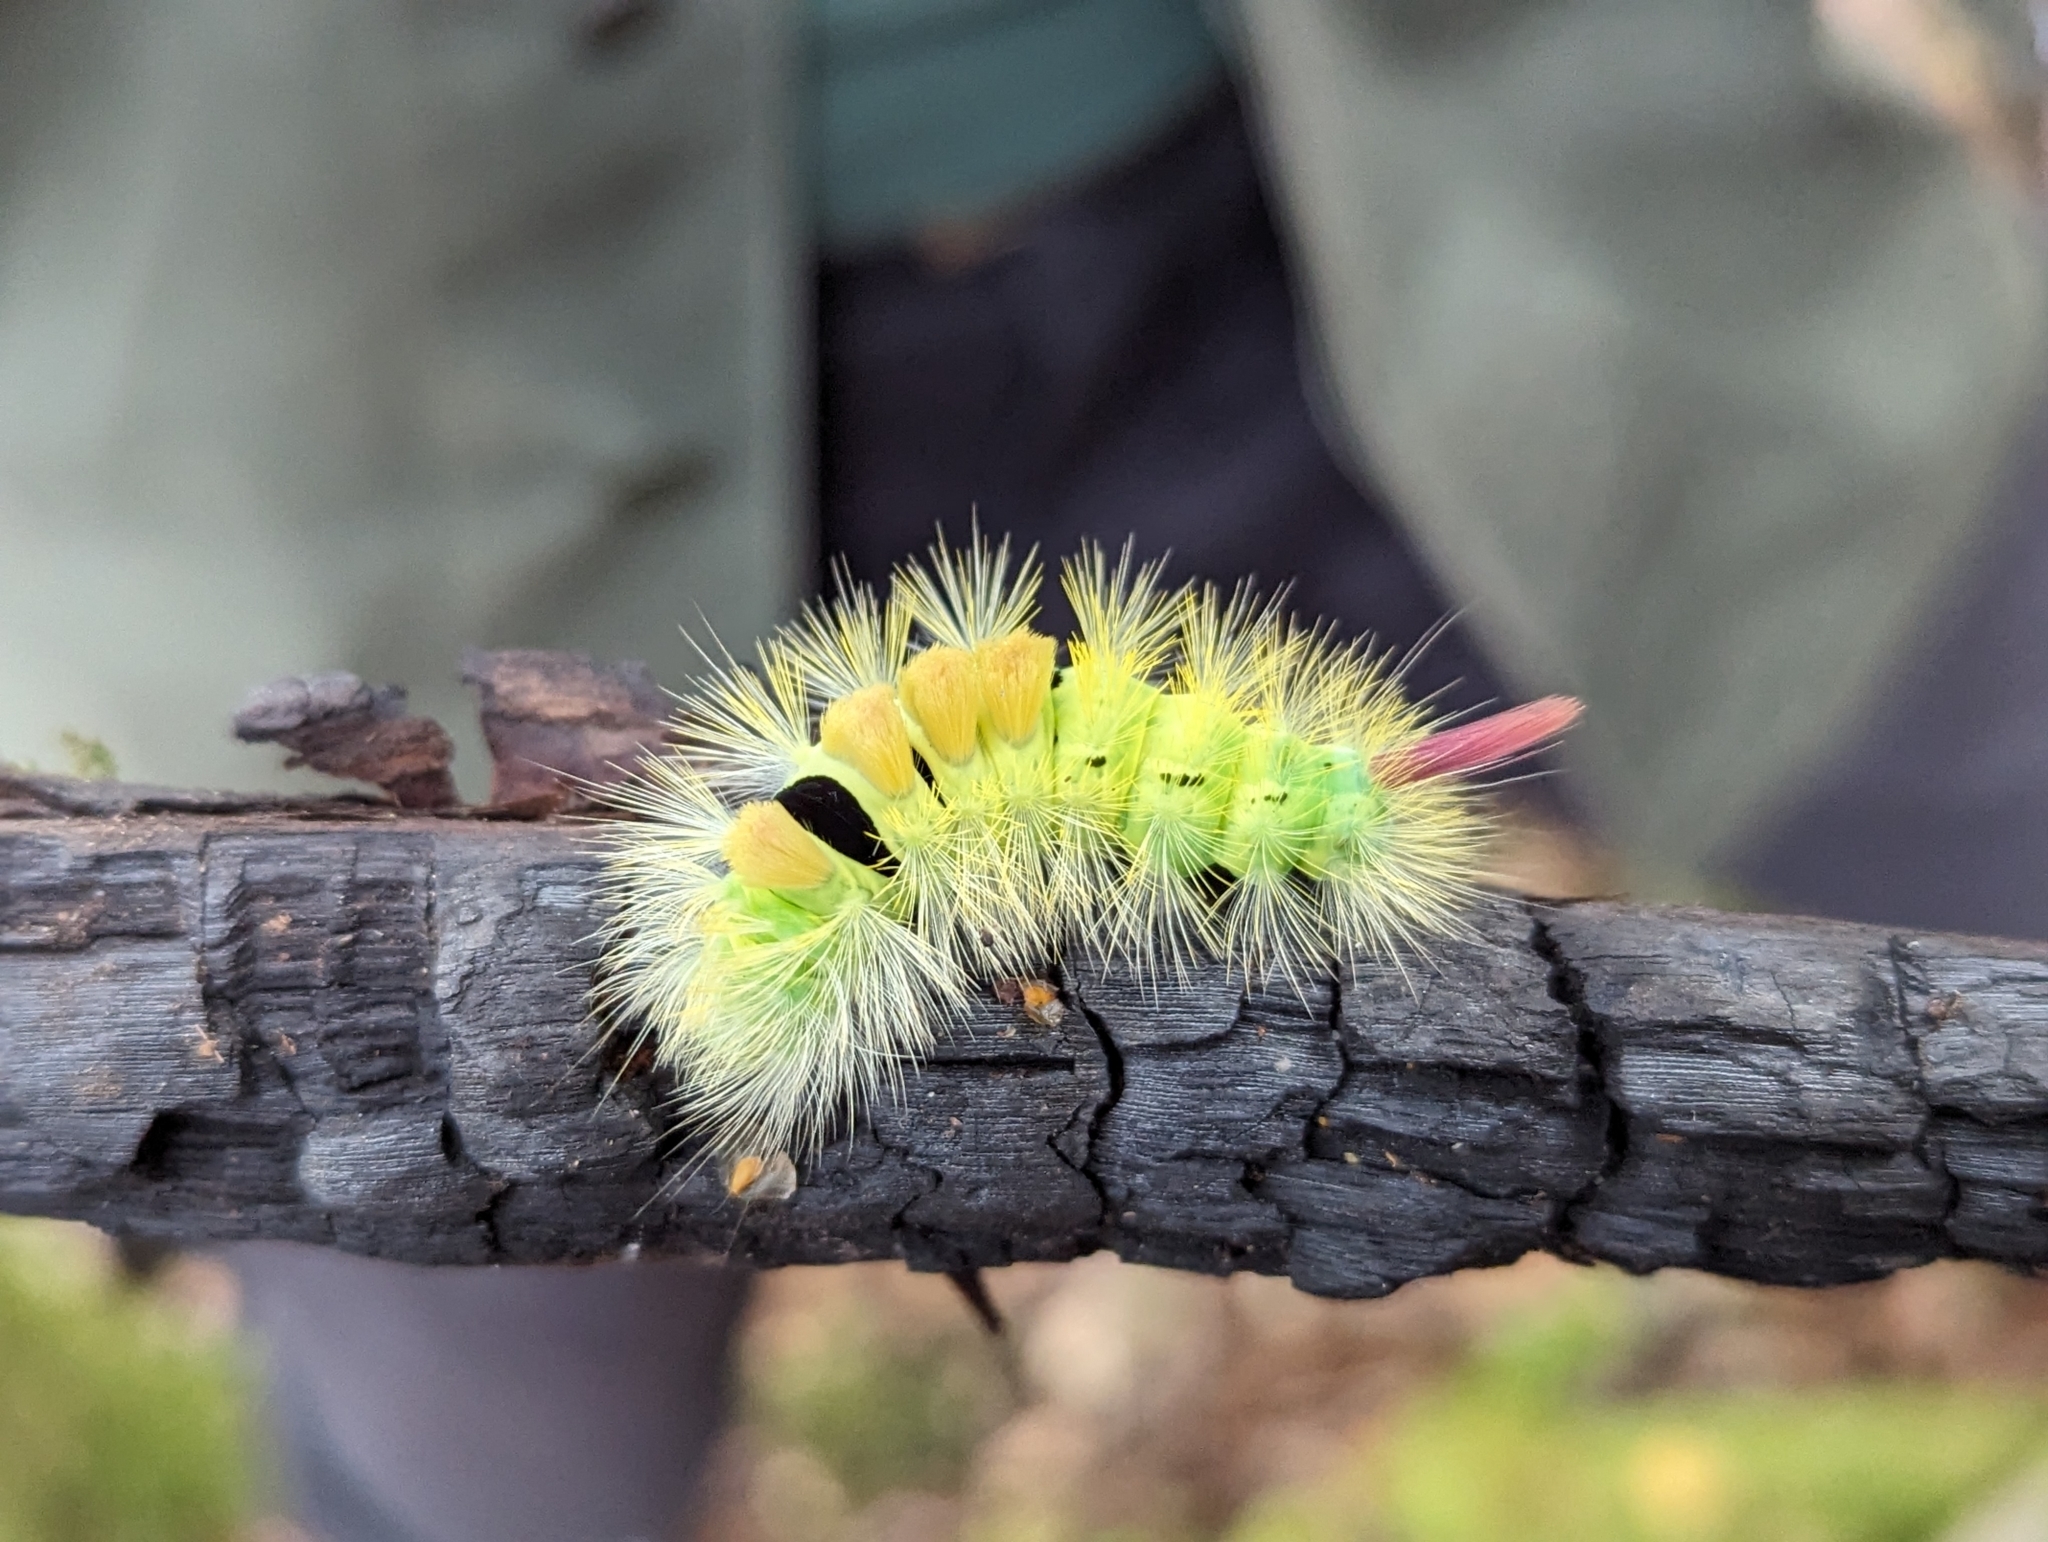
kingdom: Animalia
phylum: Arthropoda
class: Insecta
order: Lepidoptera
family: Erebidae
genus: Calliteara
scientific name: Calliteara pudibunda
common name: Pale tussock
